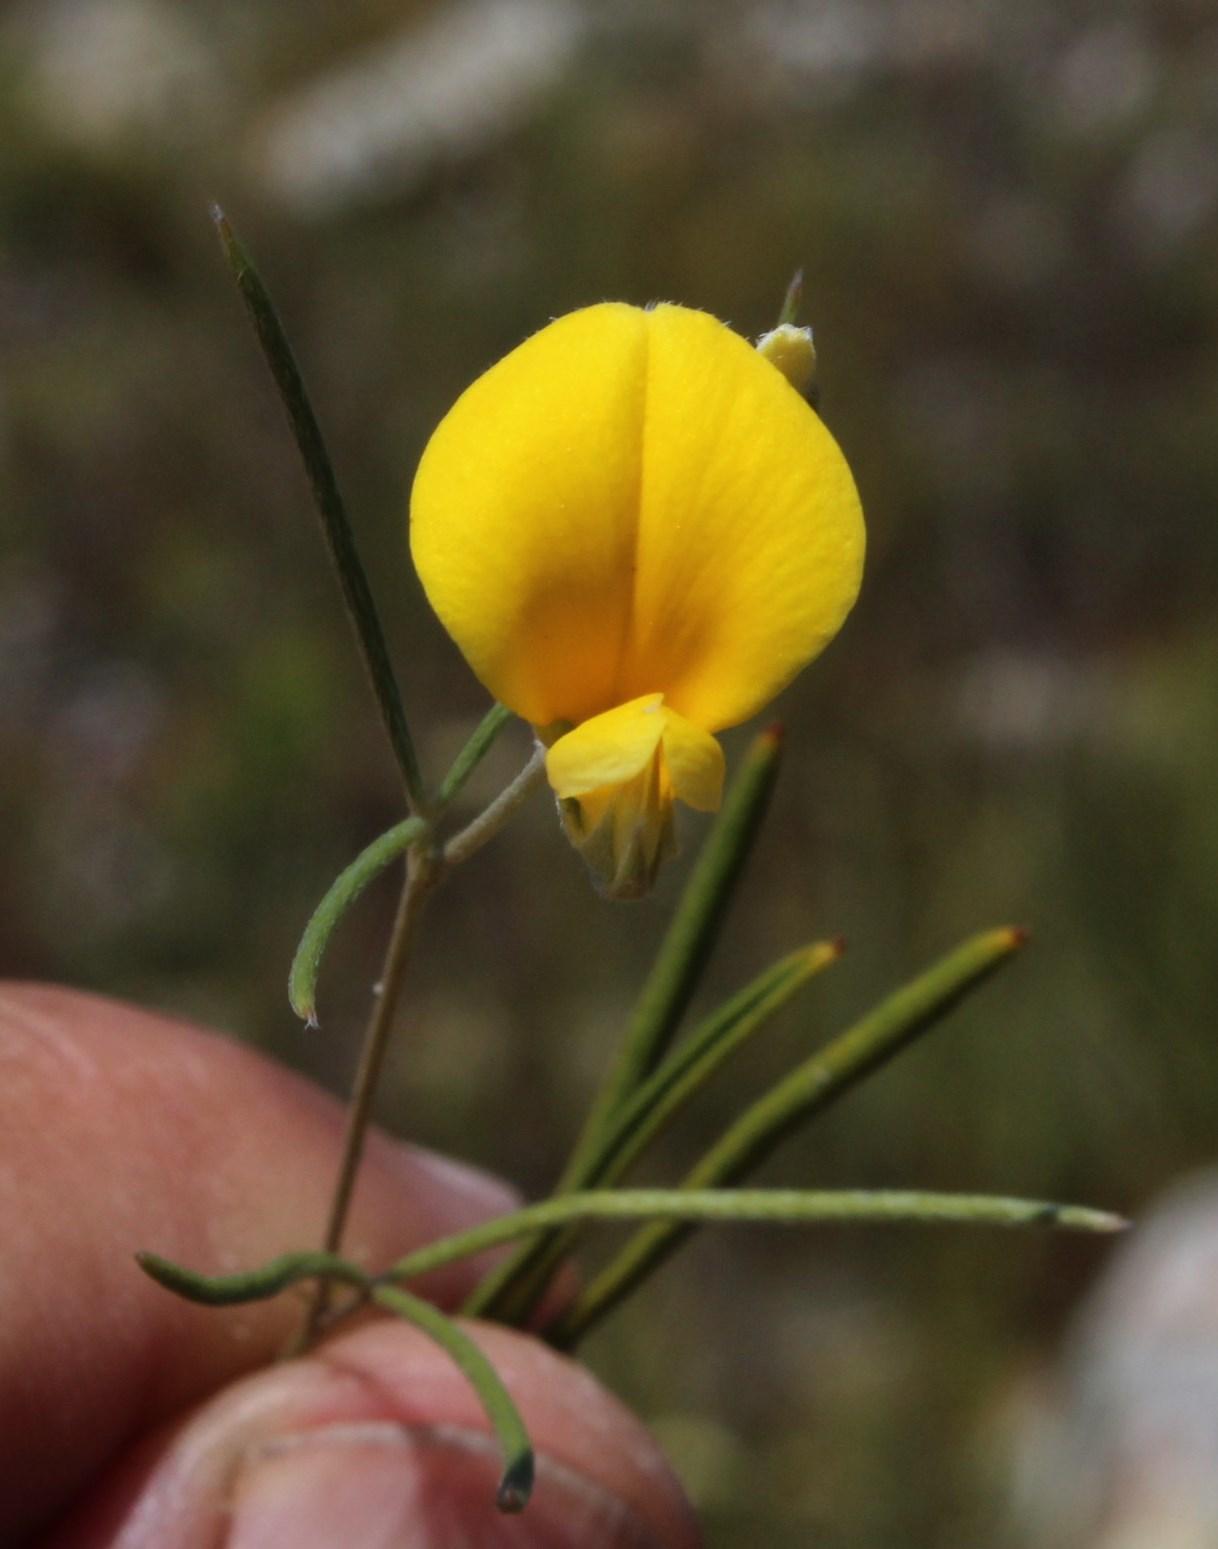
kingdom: Plantae
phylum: Tracheophyta
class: Magnoliopsida
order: Fabales
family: Fabaceae
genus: Argyrolobium
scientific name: Argyrolobium filifolia
